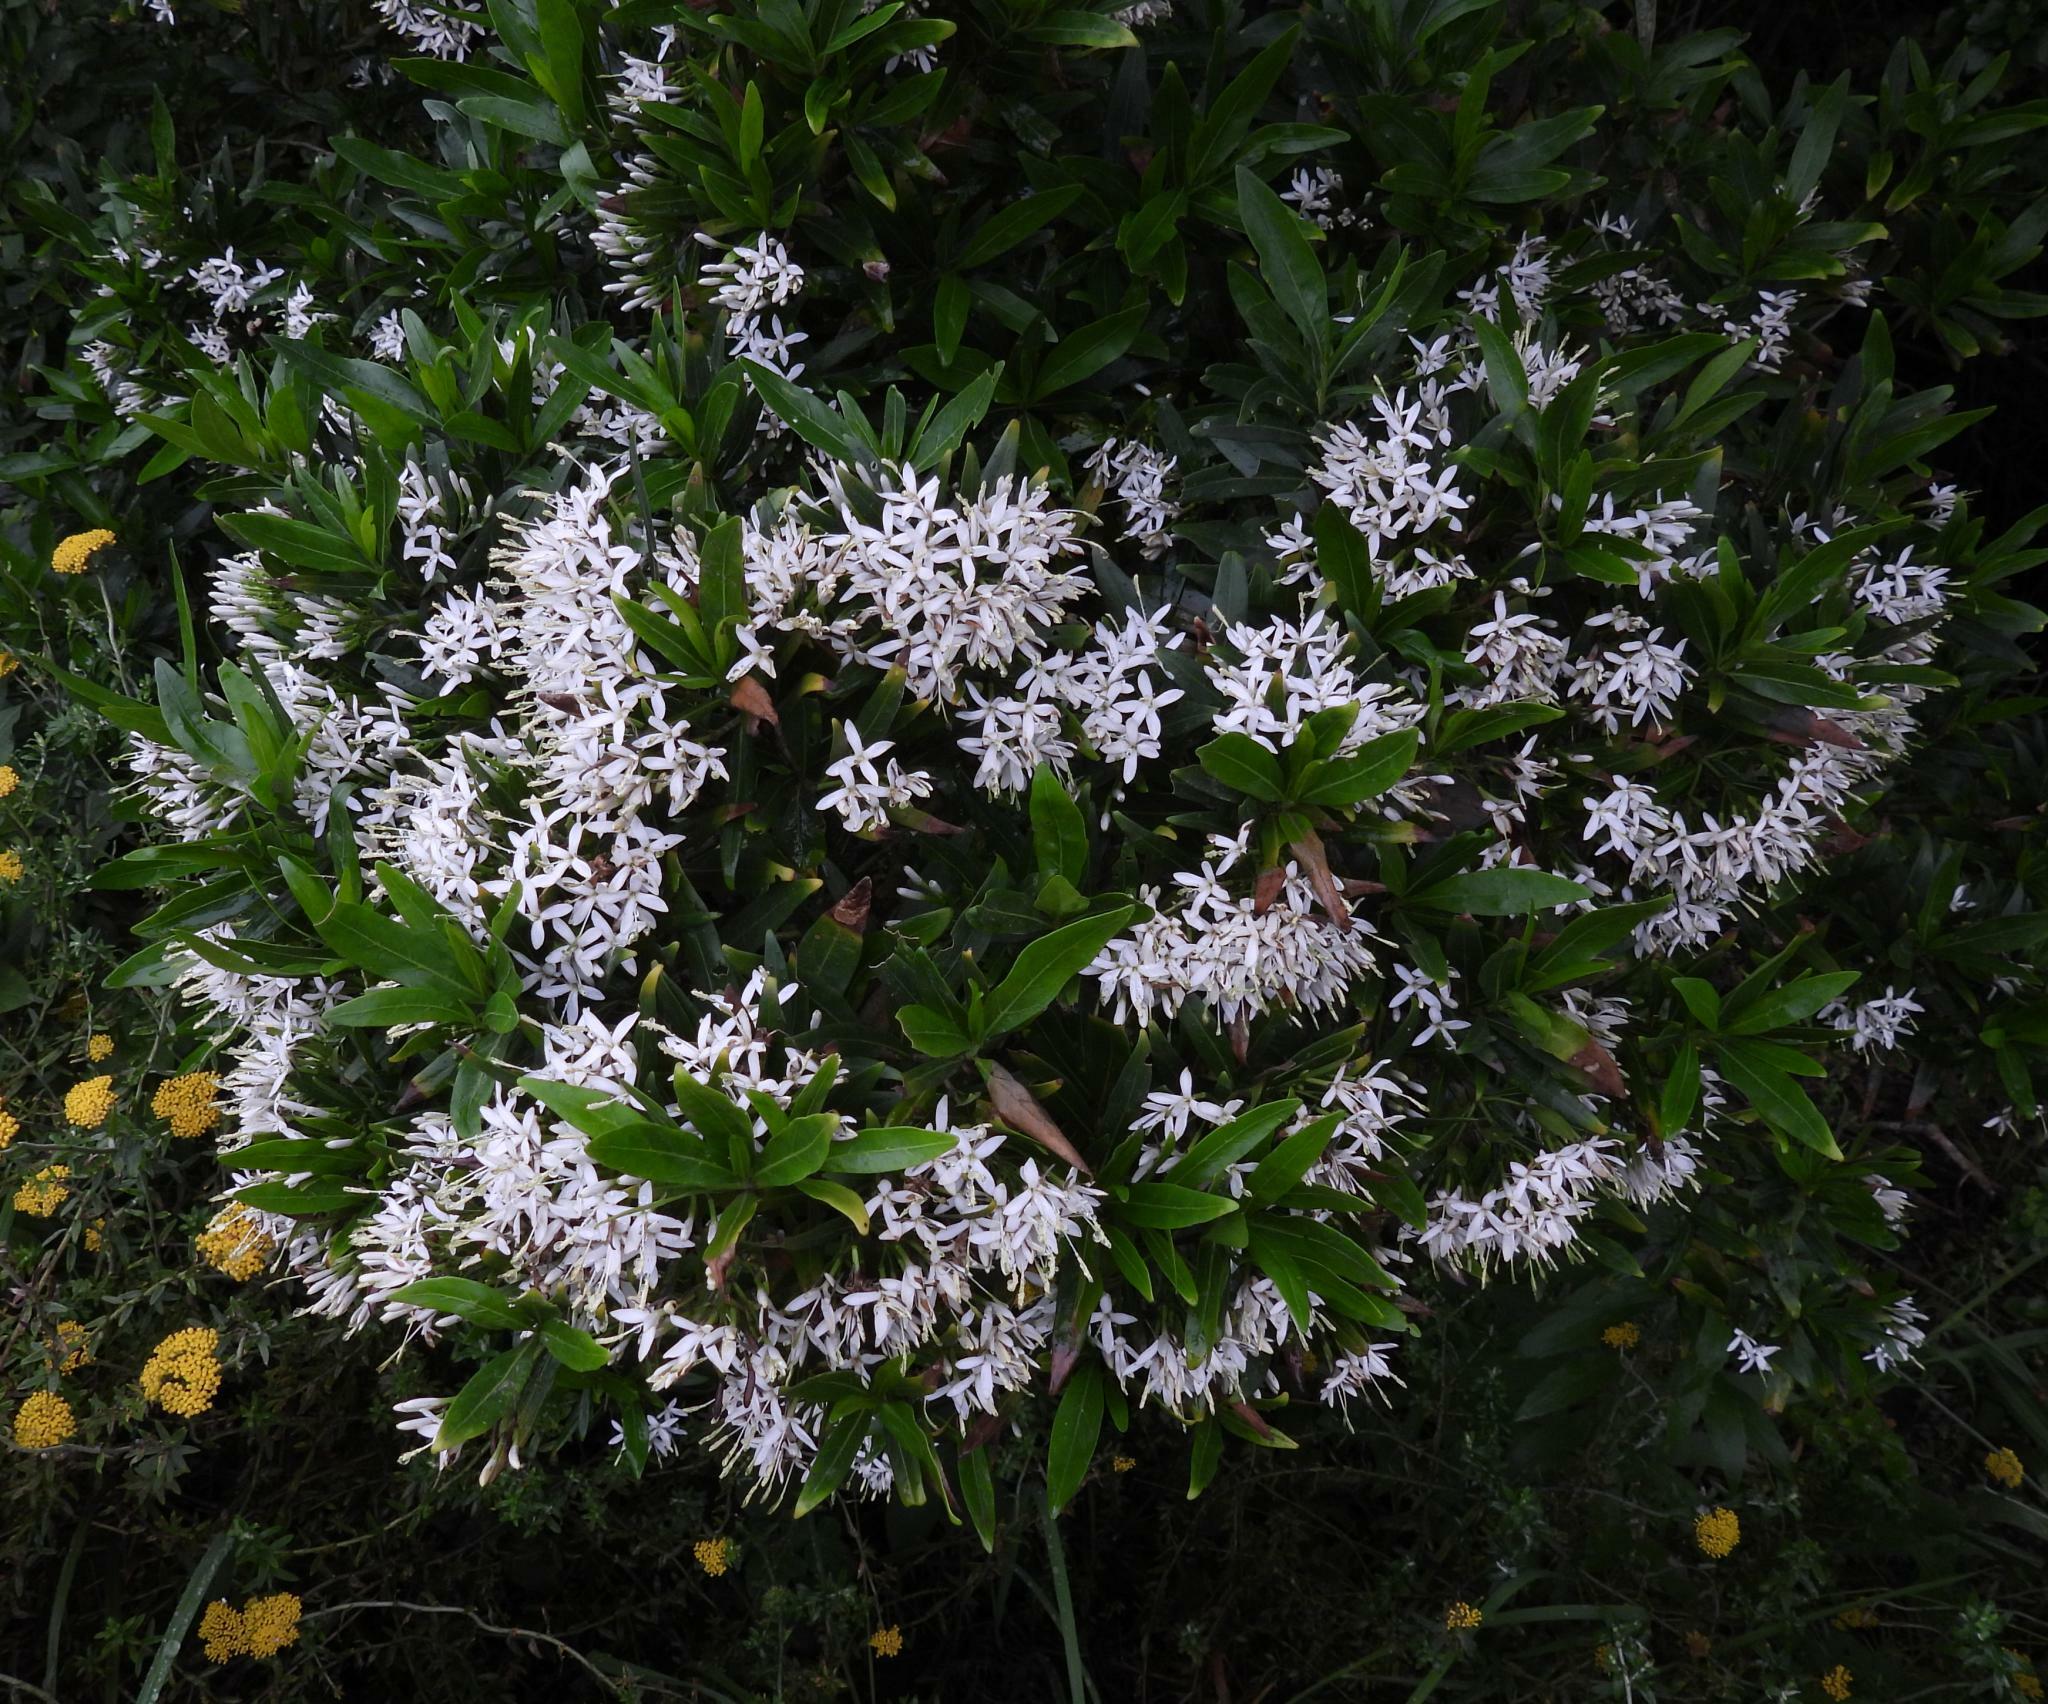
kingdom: Plantae
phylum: Tracheophyta
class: Magnoliopsida
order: Gentianales
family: Rubiaceae
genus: Pavetta
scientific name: Pavetta lanceolata
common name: Weeping brides-bush
